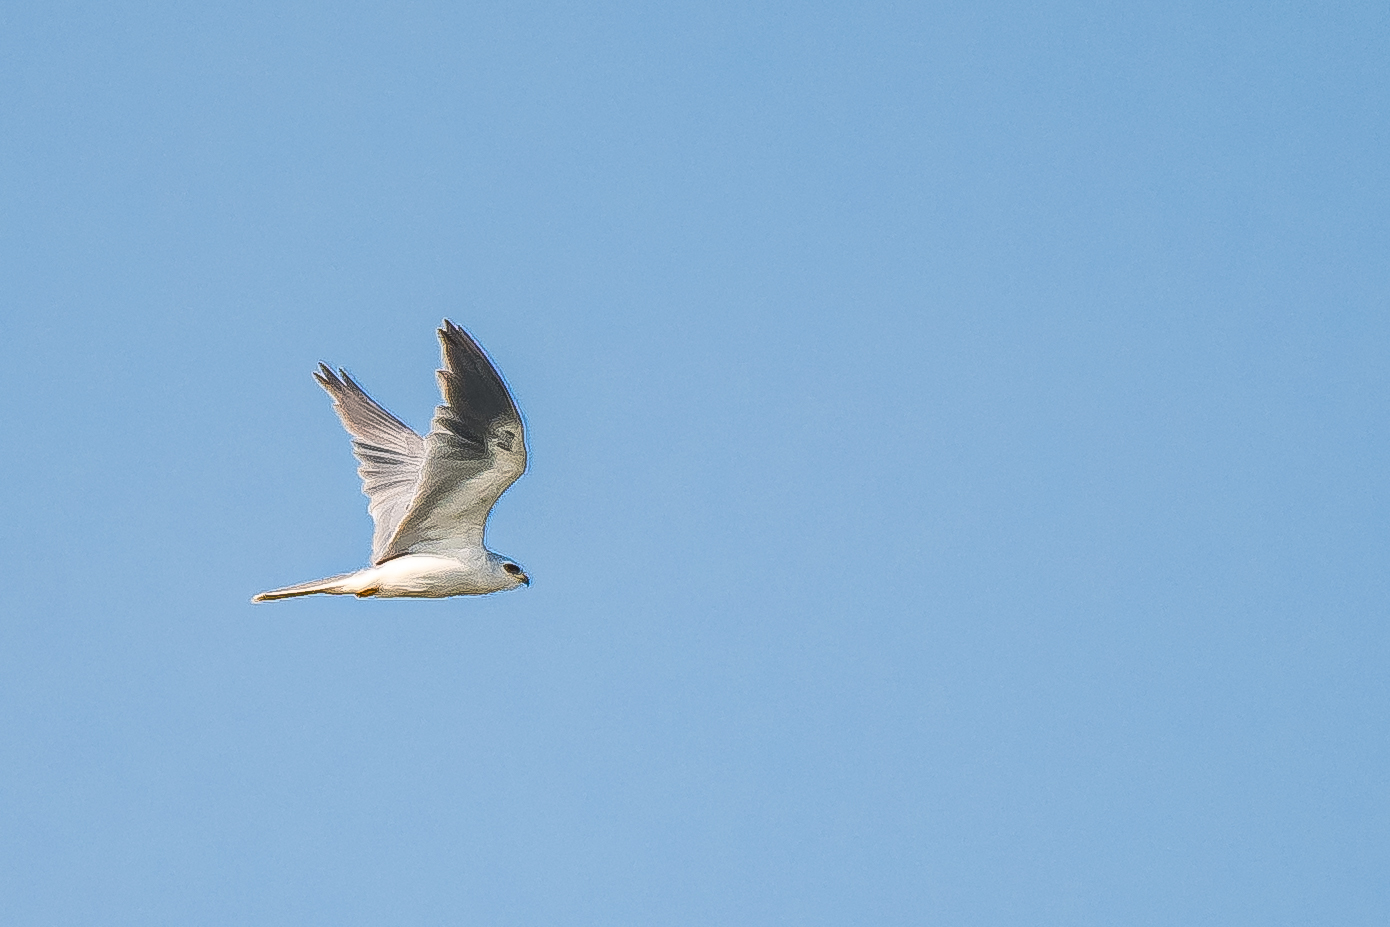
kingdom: Animalia
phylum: Chordata
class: Aves
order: Accipitriformes
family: Accipitridae
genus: Elanus
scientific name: Elanus leucurus
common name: White-tailed kite
